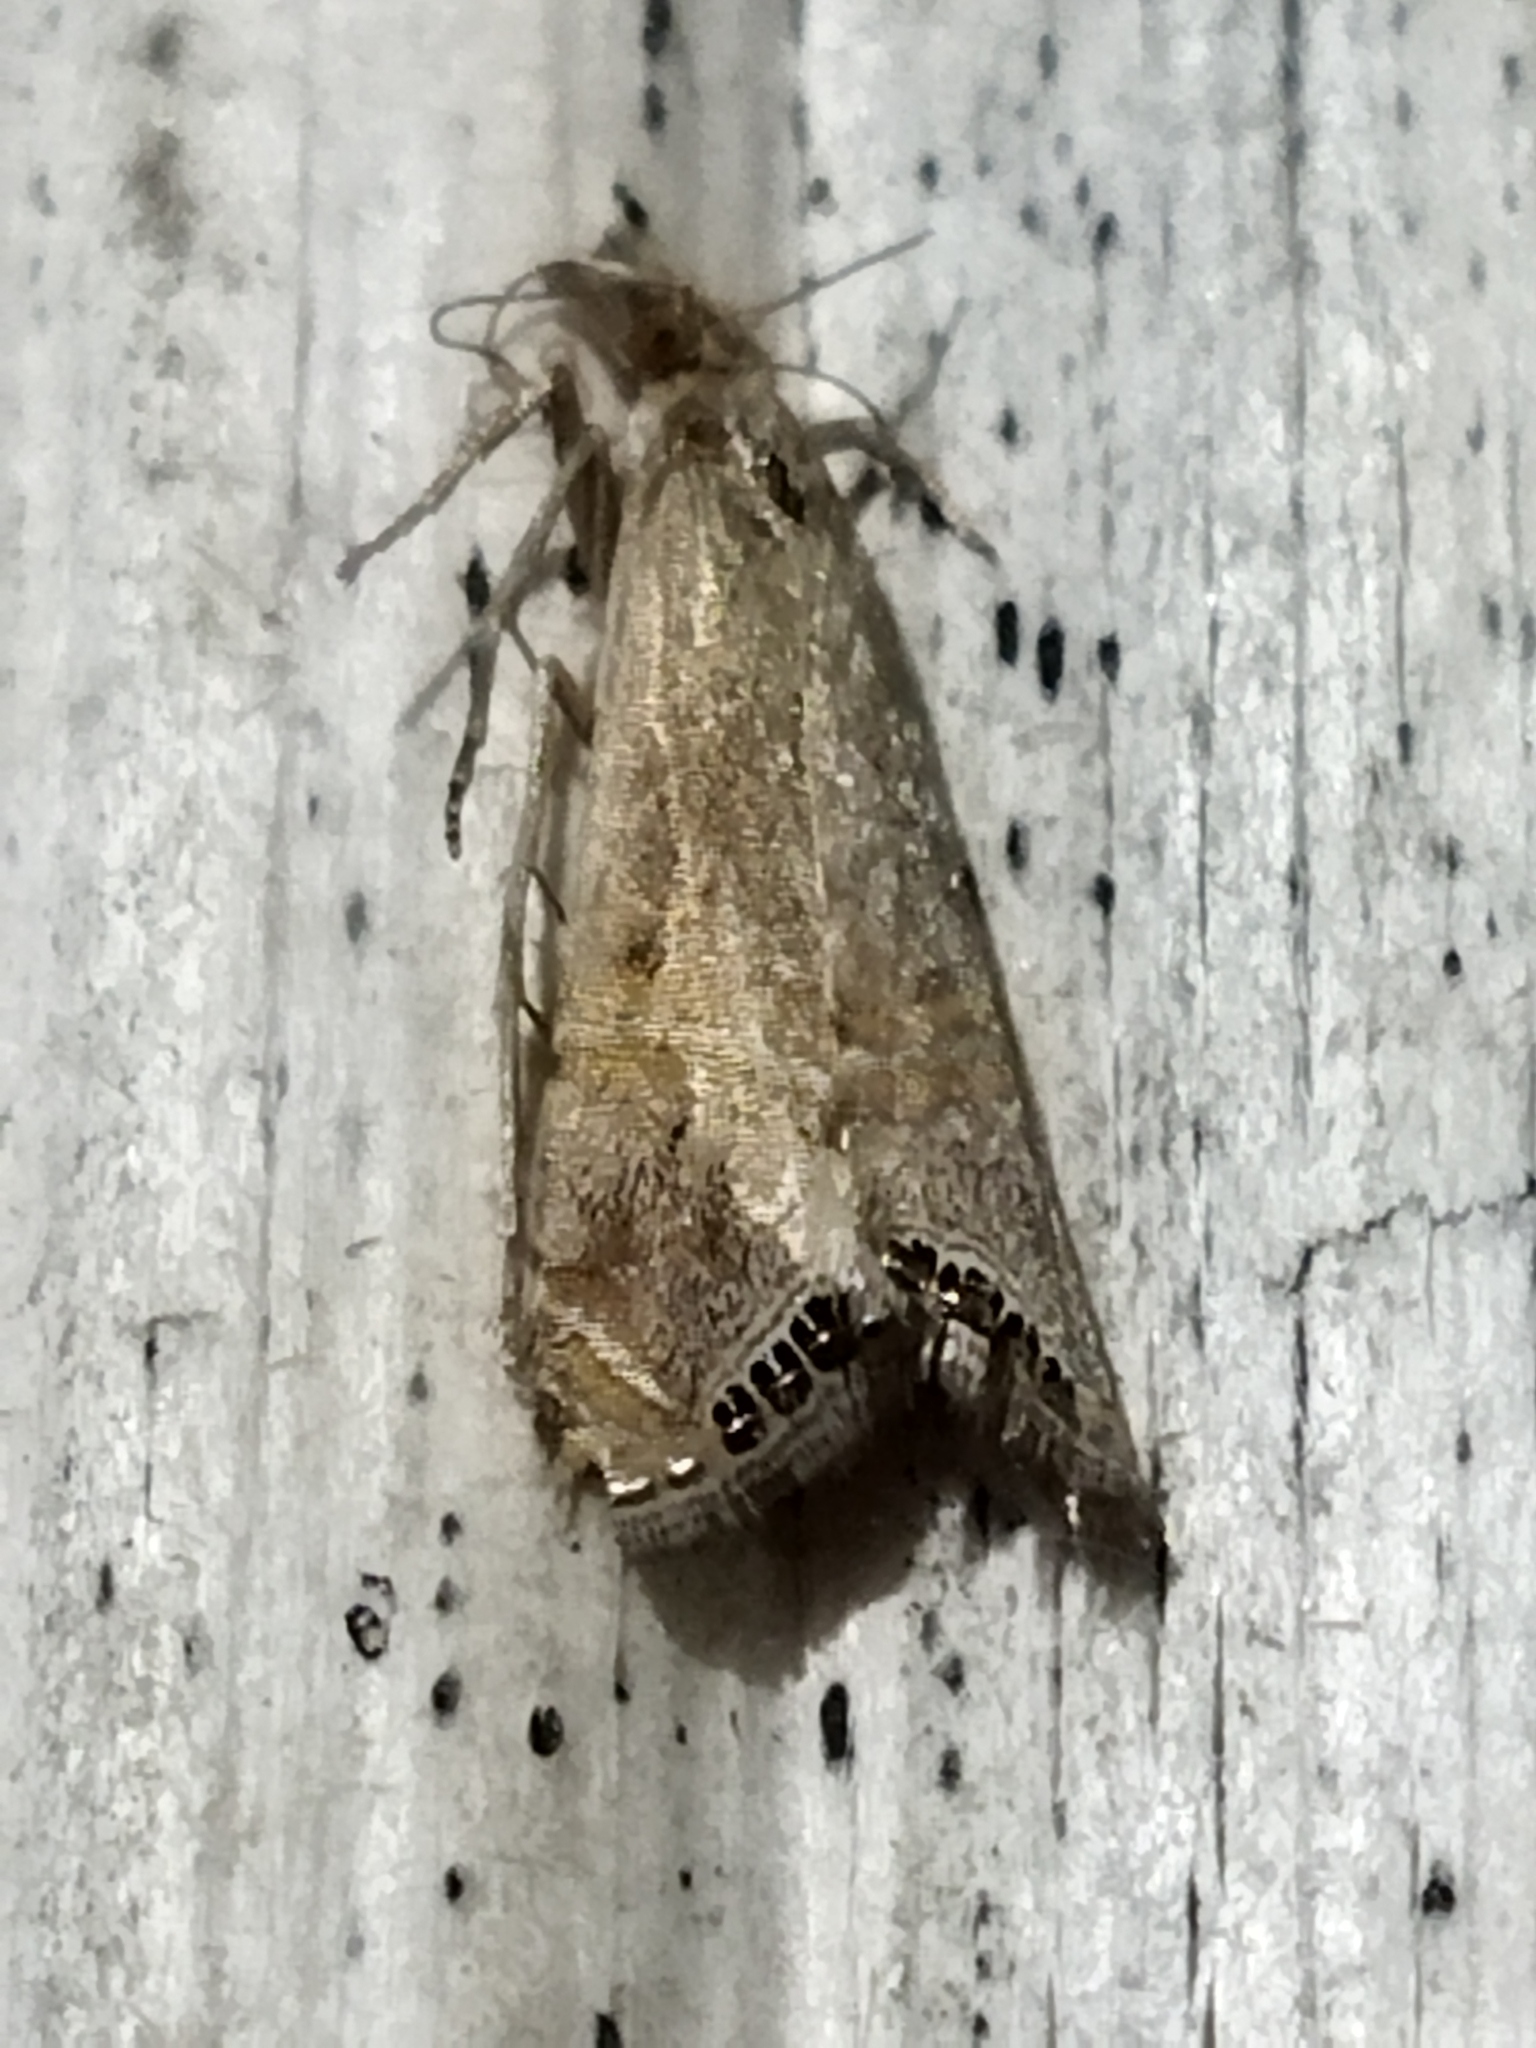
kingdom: Animalia
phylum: Arthropoda
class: Insecta
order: Lepidoptera
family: Crambidae
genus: Euchromius
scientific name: Euchromius ocellea
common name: Necklace veneer moth
